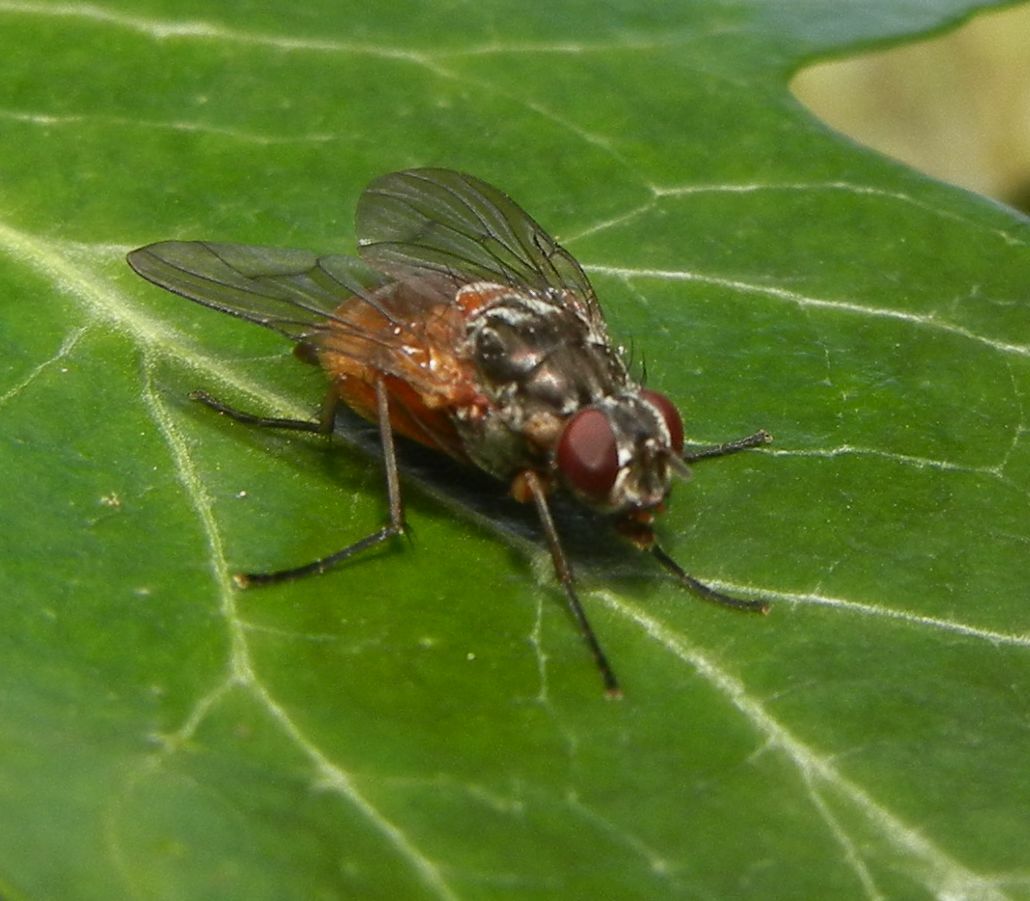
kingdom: Animalia
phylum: Arthropoda
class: Insecta
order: Diptera
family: Muscidae
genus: Phaonia
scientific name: Phaonia subventa
